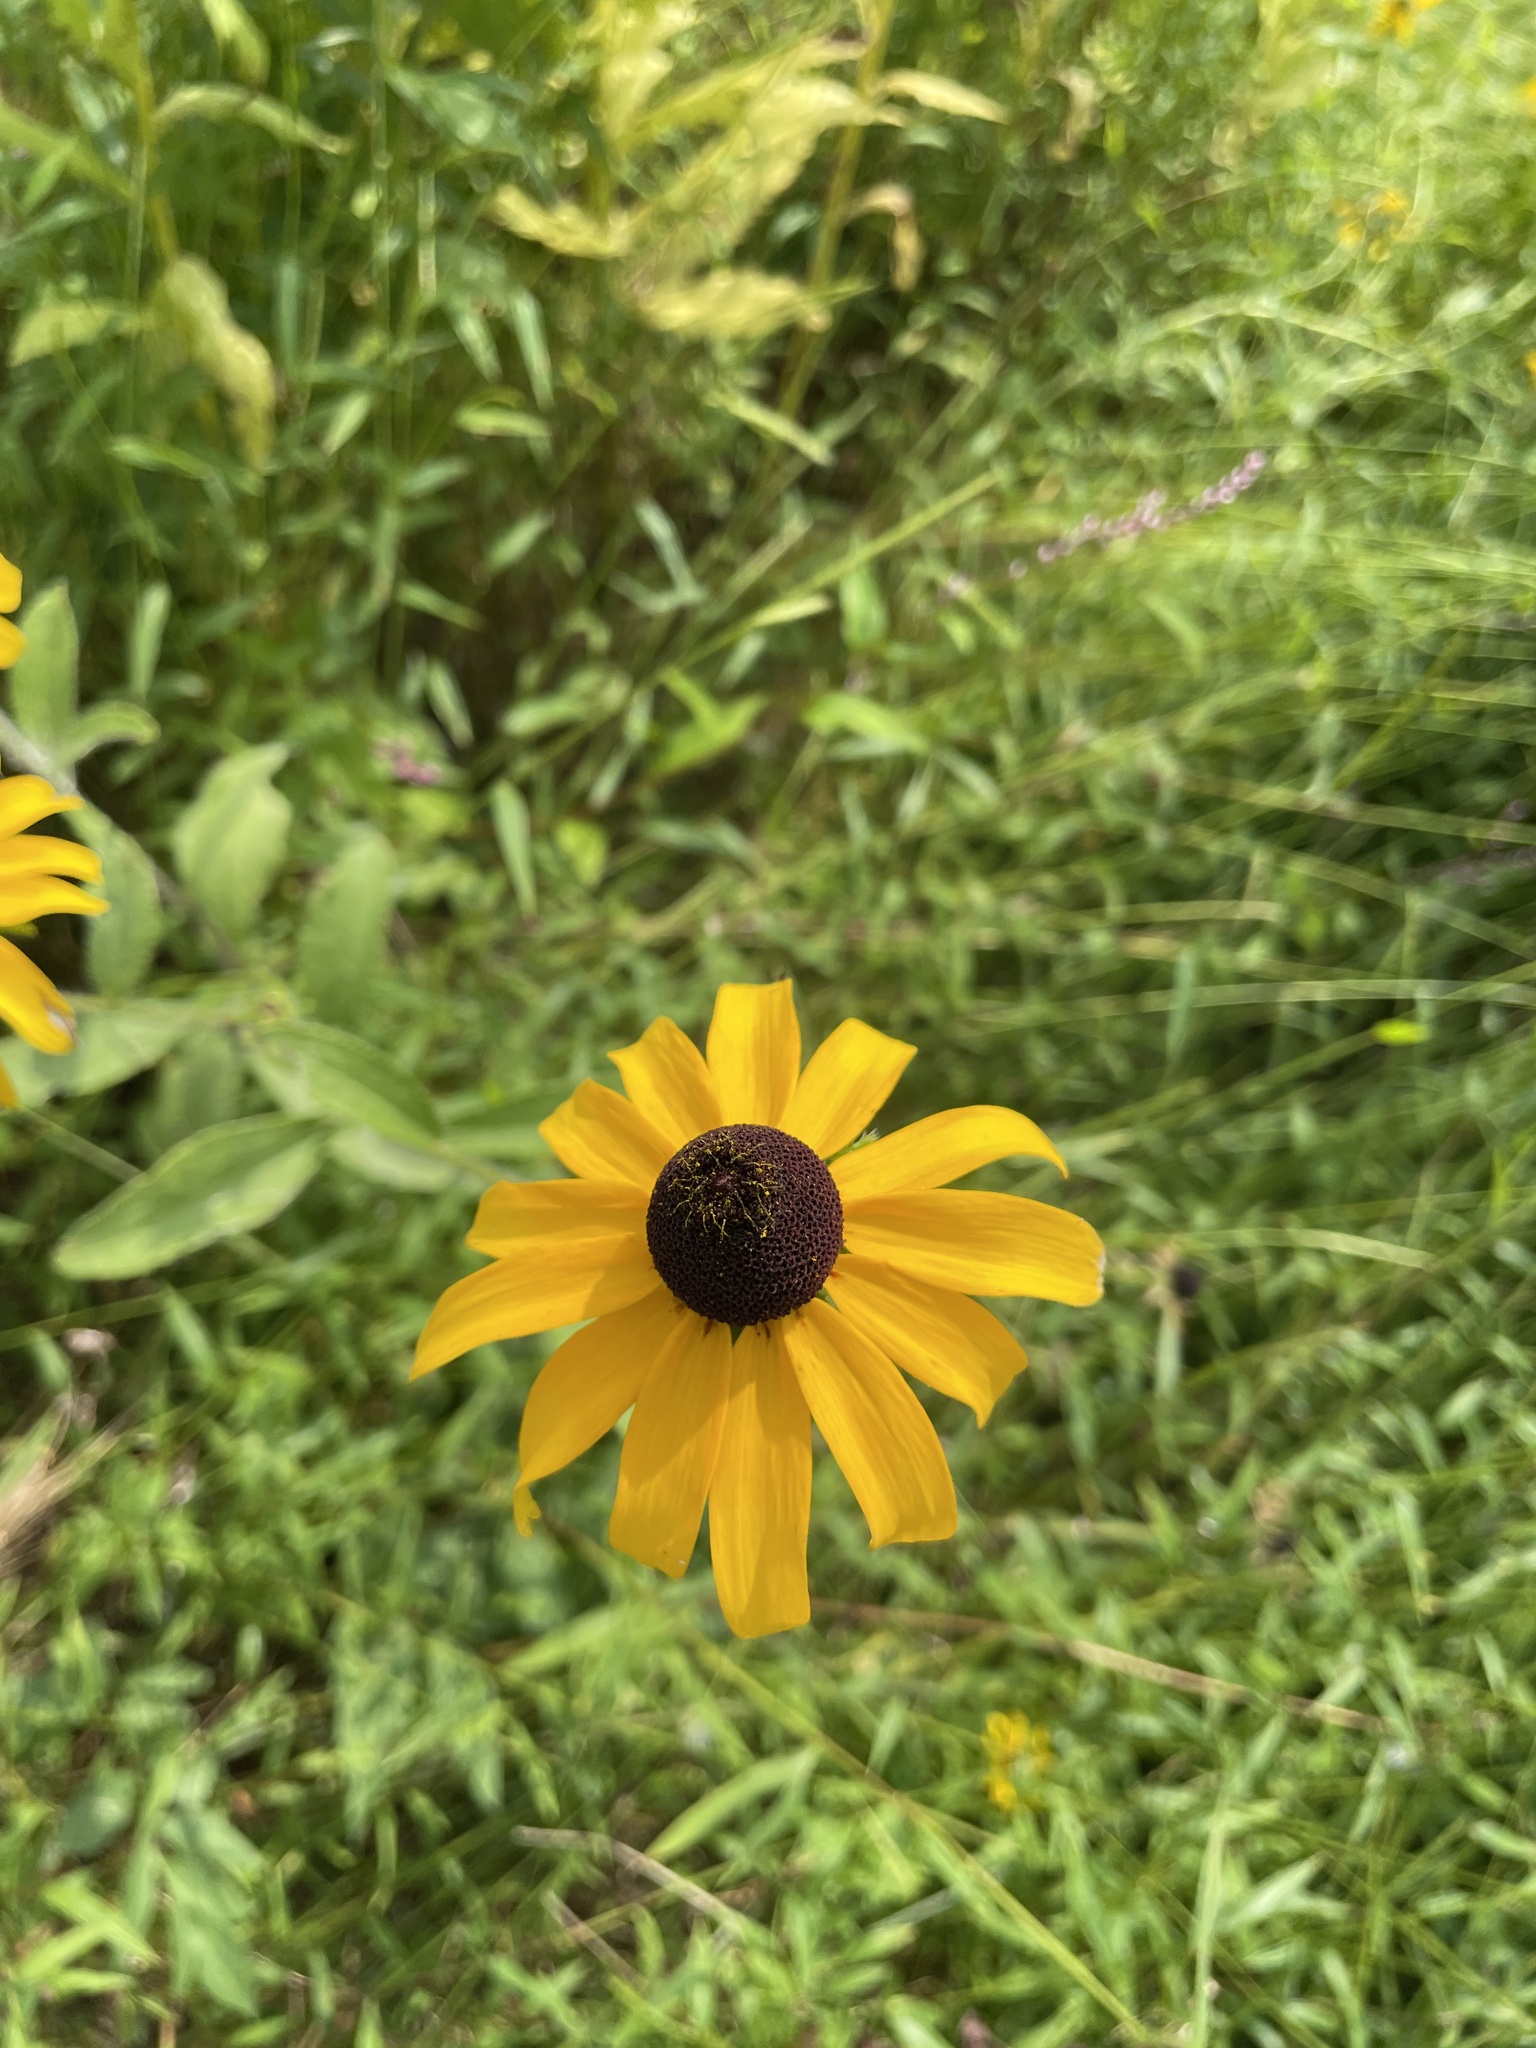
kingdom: Plantae
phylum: Tracheophyta
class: Magnoliopsida
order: Asterales
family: Asteraceae
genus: Rudbeckia
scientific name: Rudbeckia hirta
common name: Black-eyed-susan
